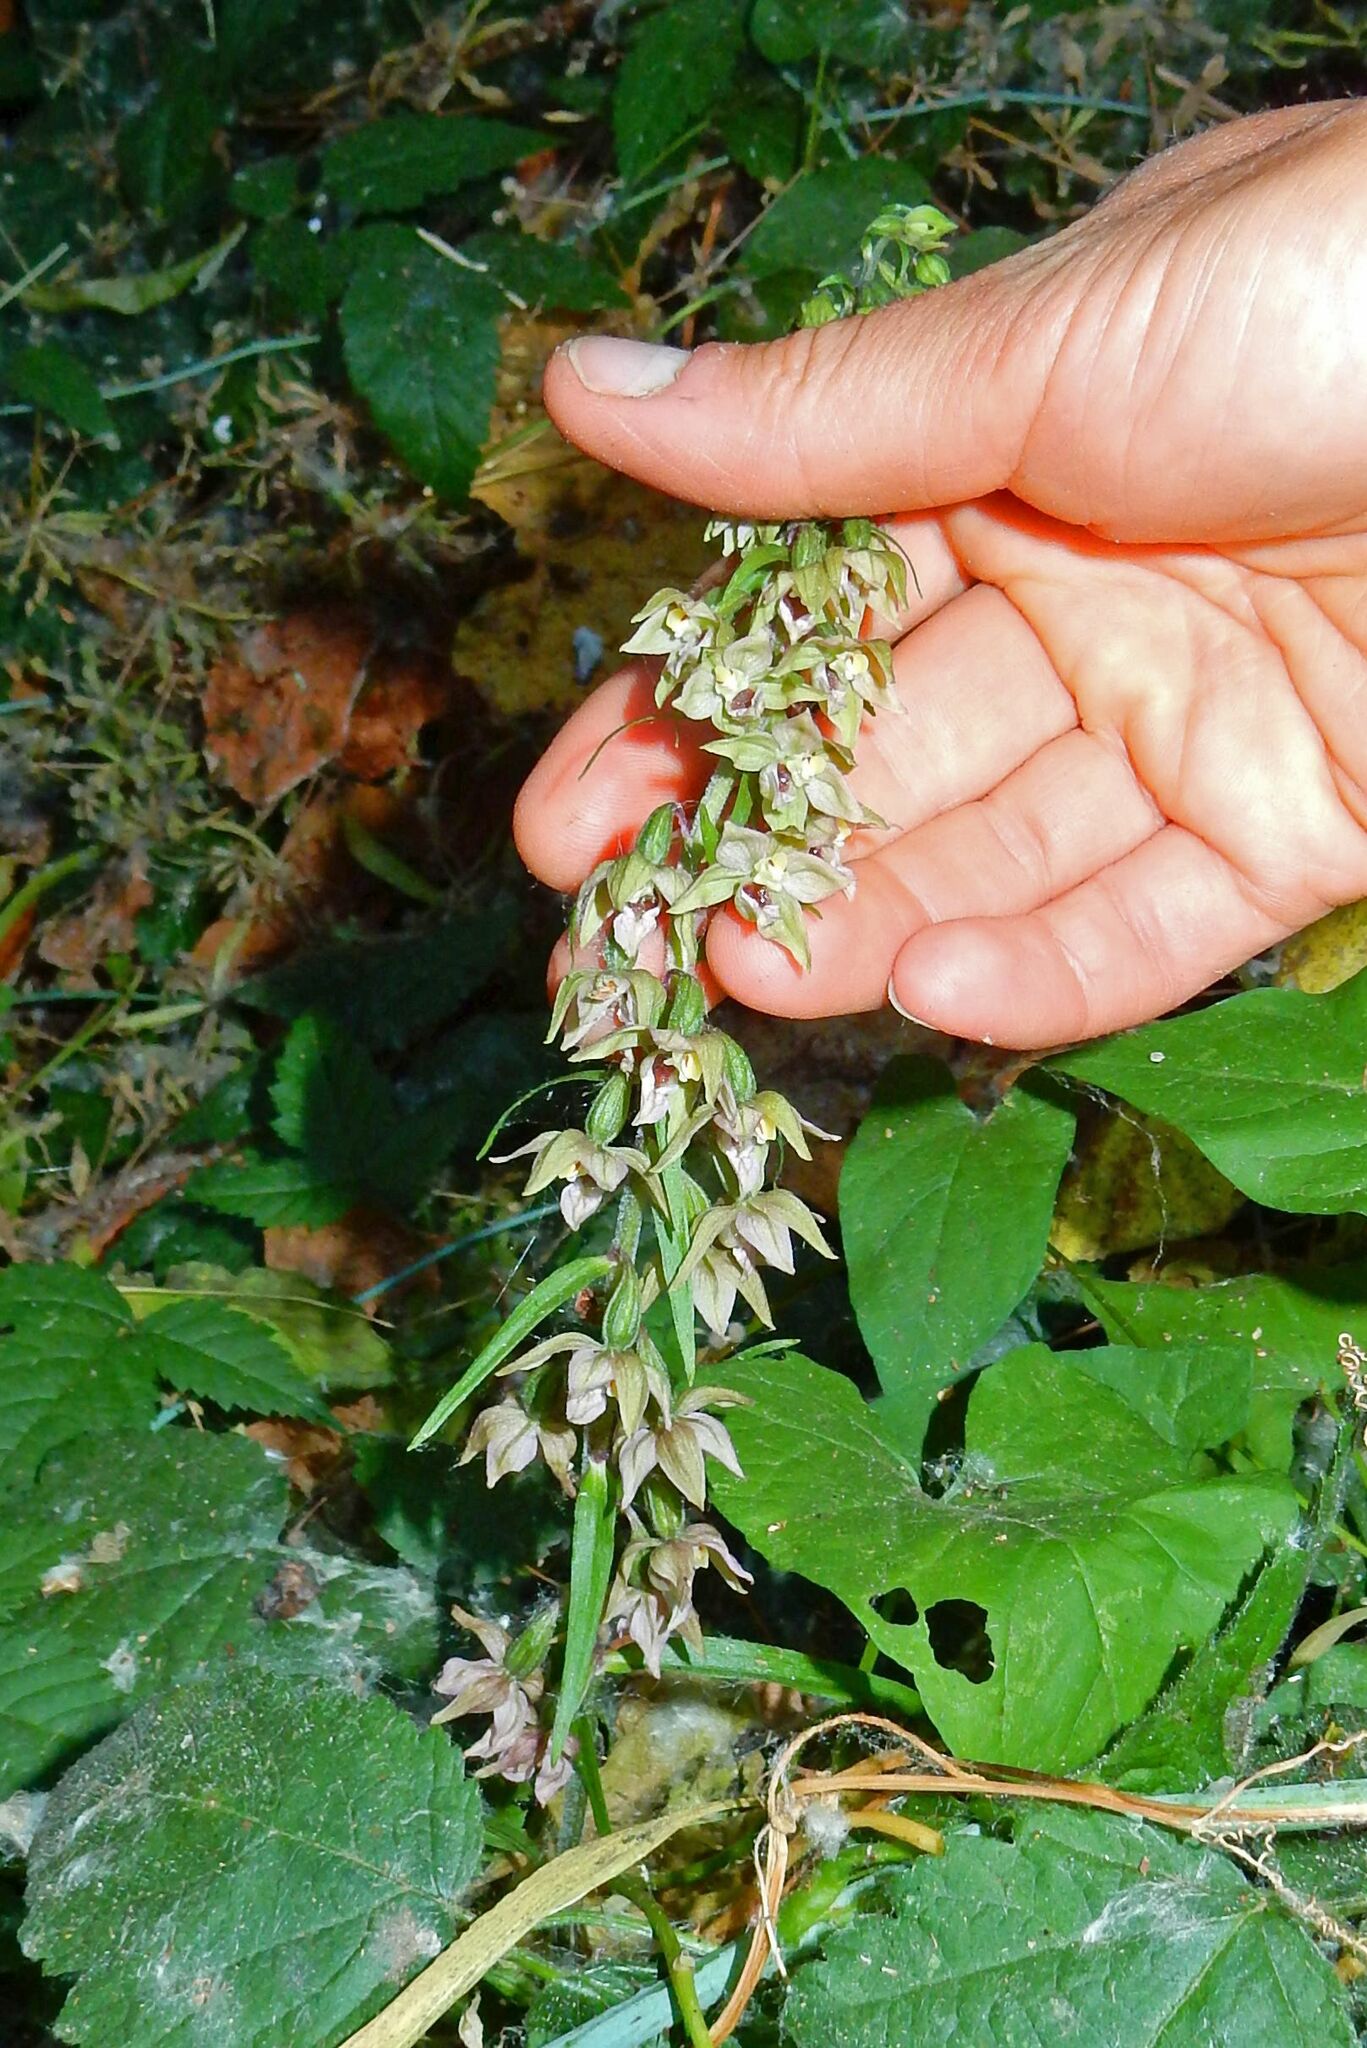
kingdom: Plantae
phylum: Tracheophyta
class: Liliopsida
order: Asparagales
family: Orchidaceae
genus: Epipactis
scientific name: Epipactis helleborine
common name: Broad-leaved helleborine
